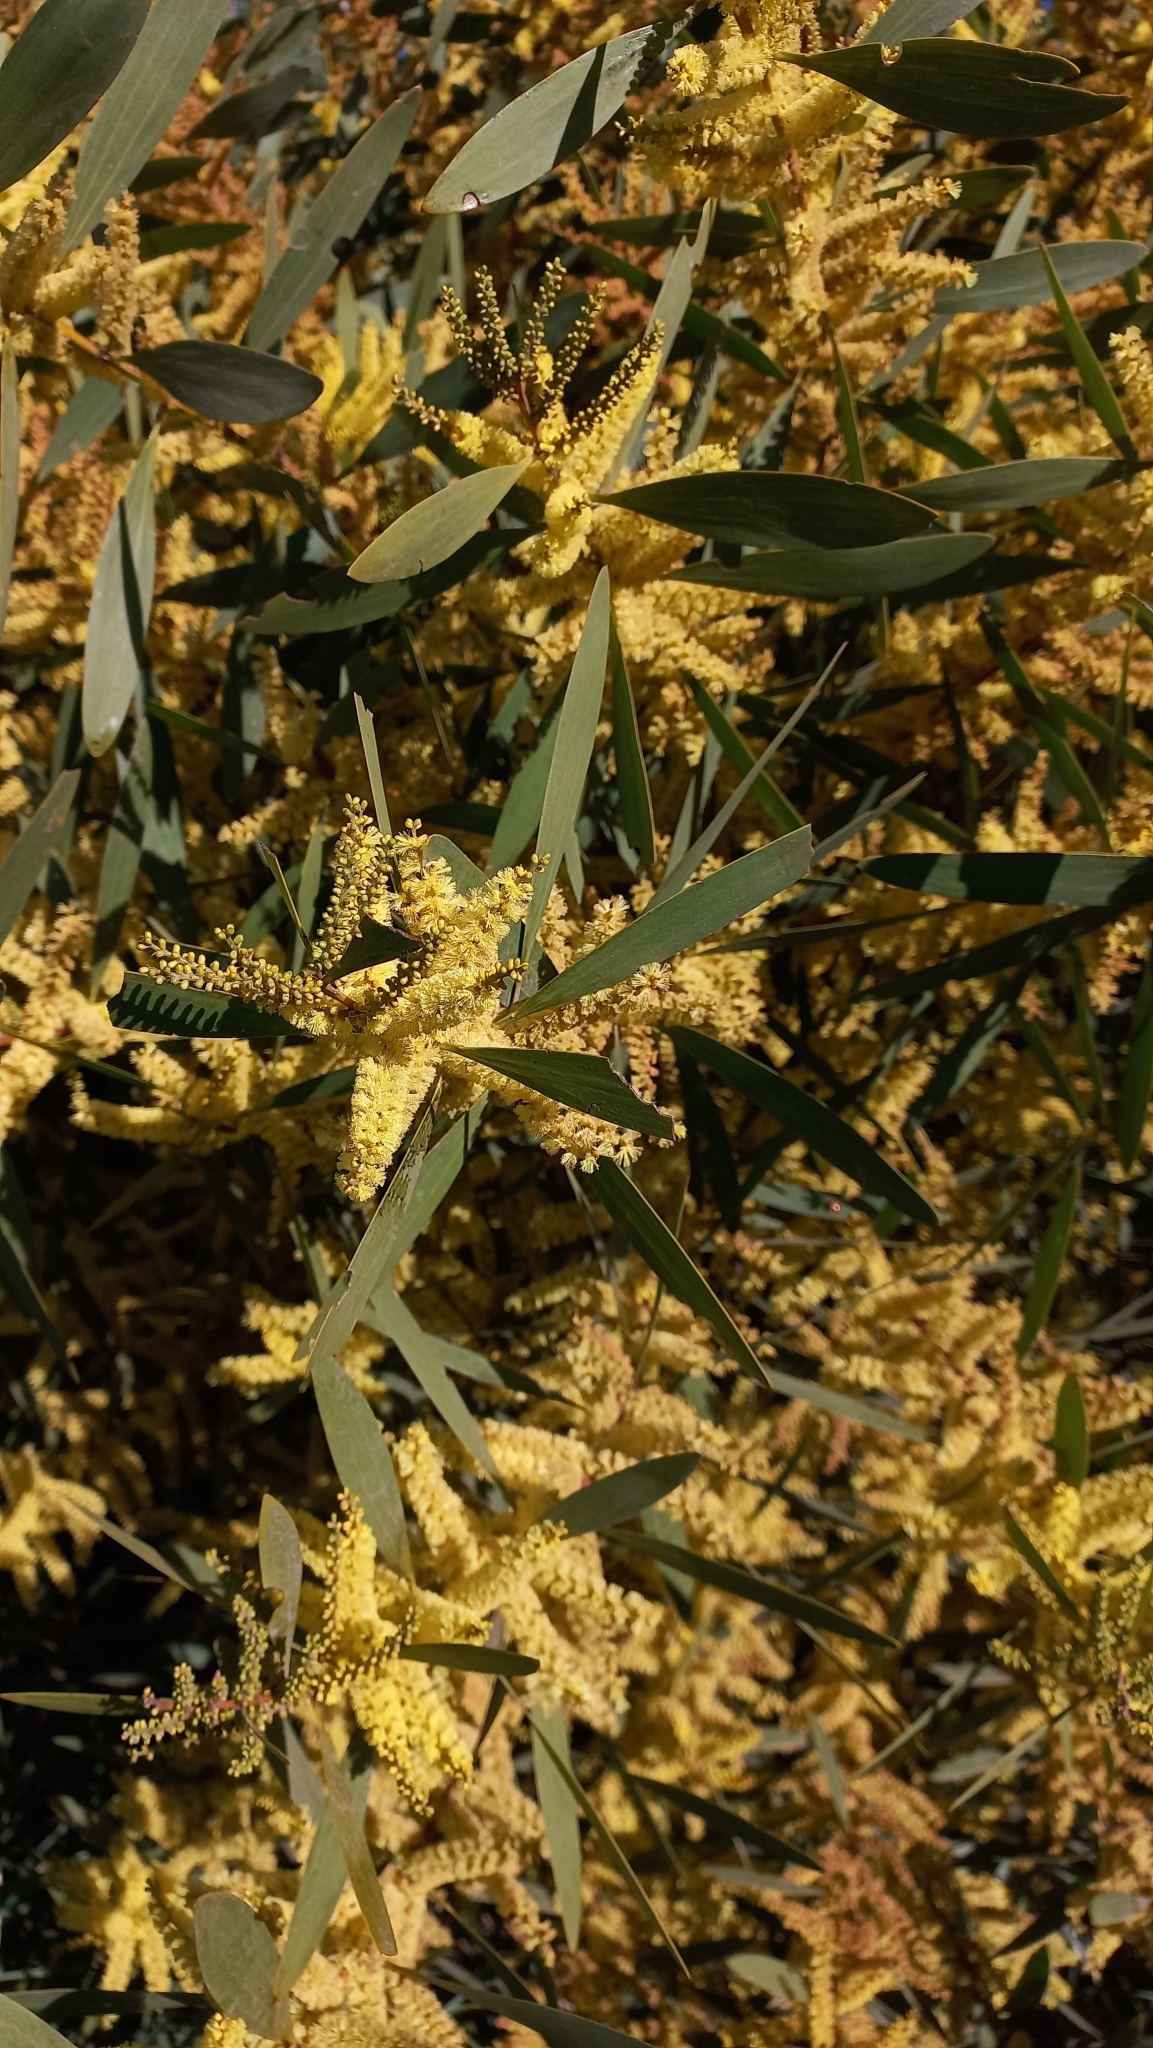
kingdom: Plantae
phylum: Tracheophyta
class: Magnoliopsida
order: Fabales
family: Fabaceae
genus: Acacia
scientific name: Acacia longifolia
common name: Sydney golden wattle
